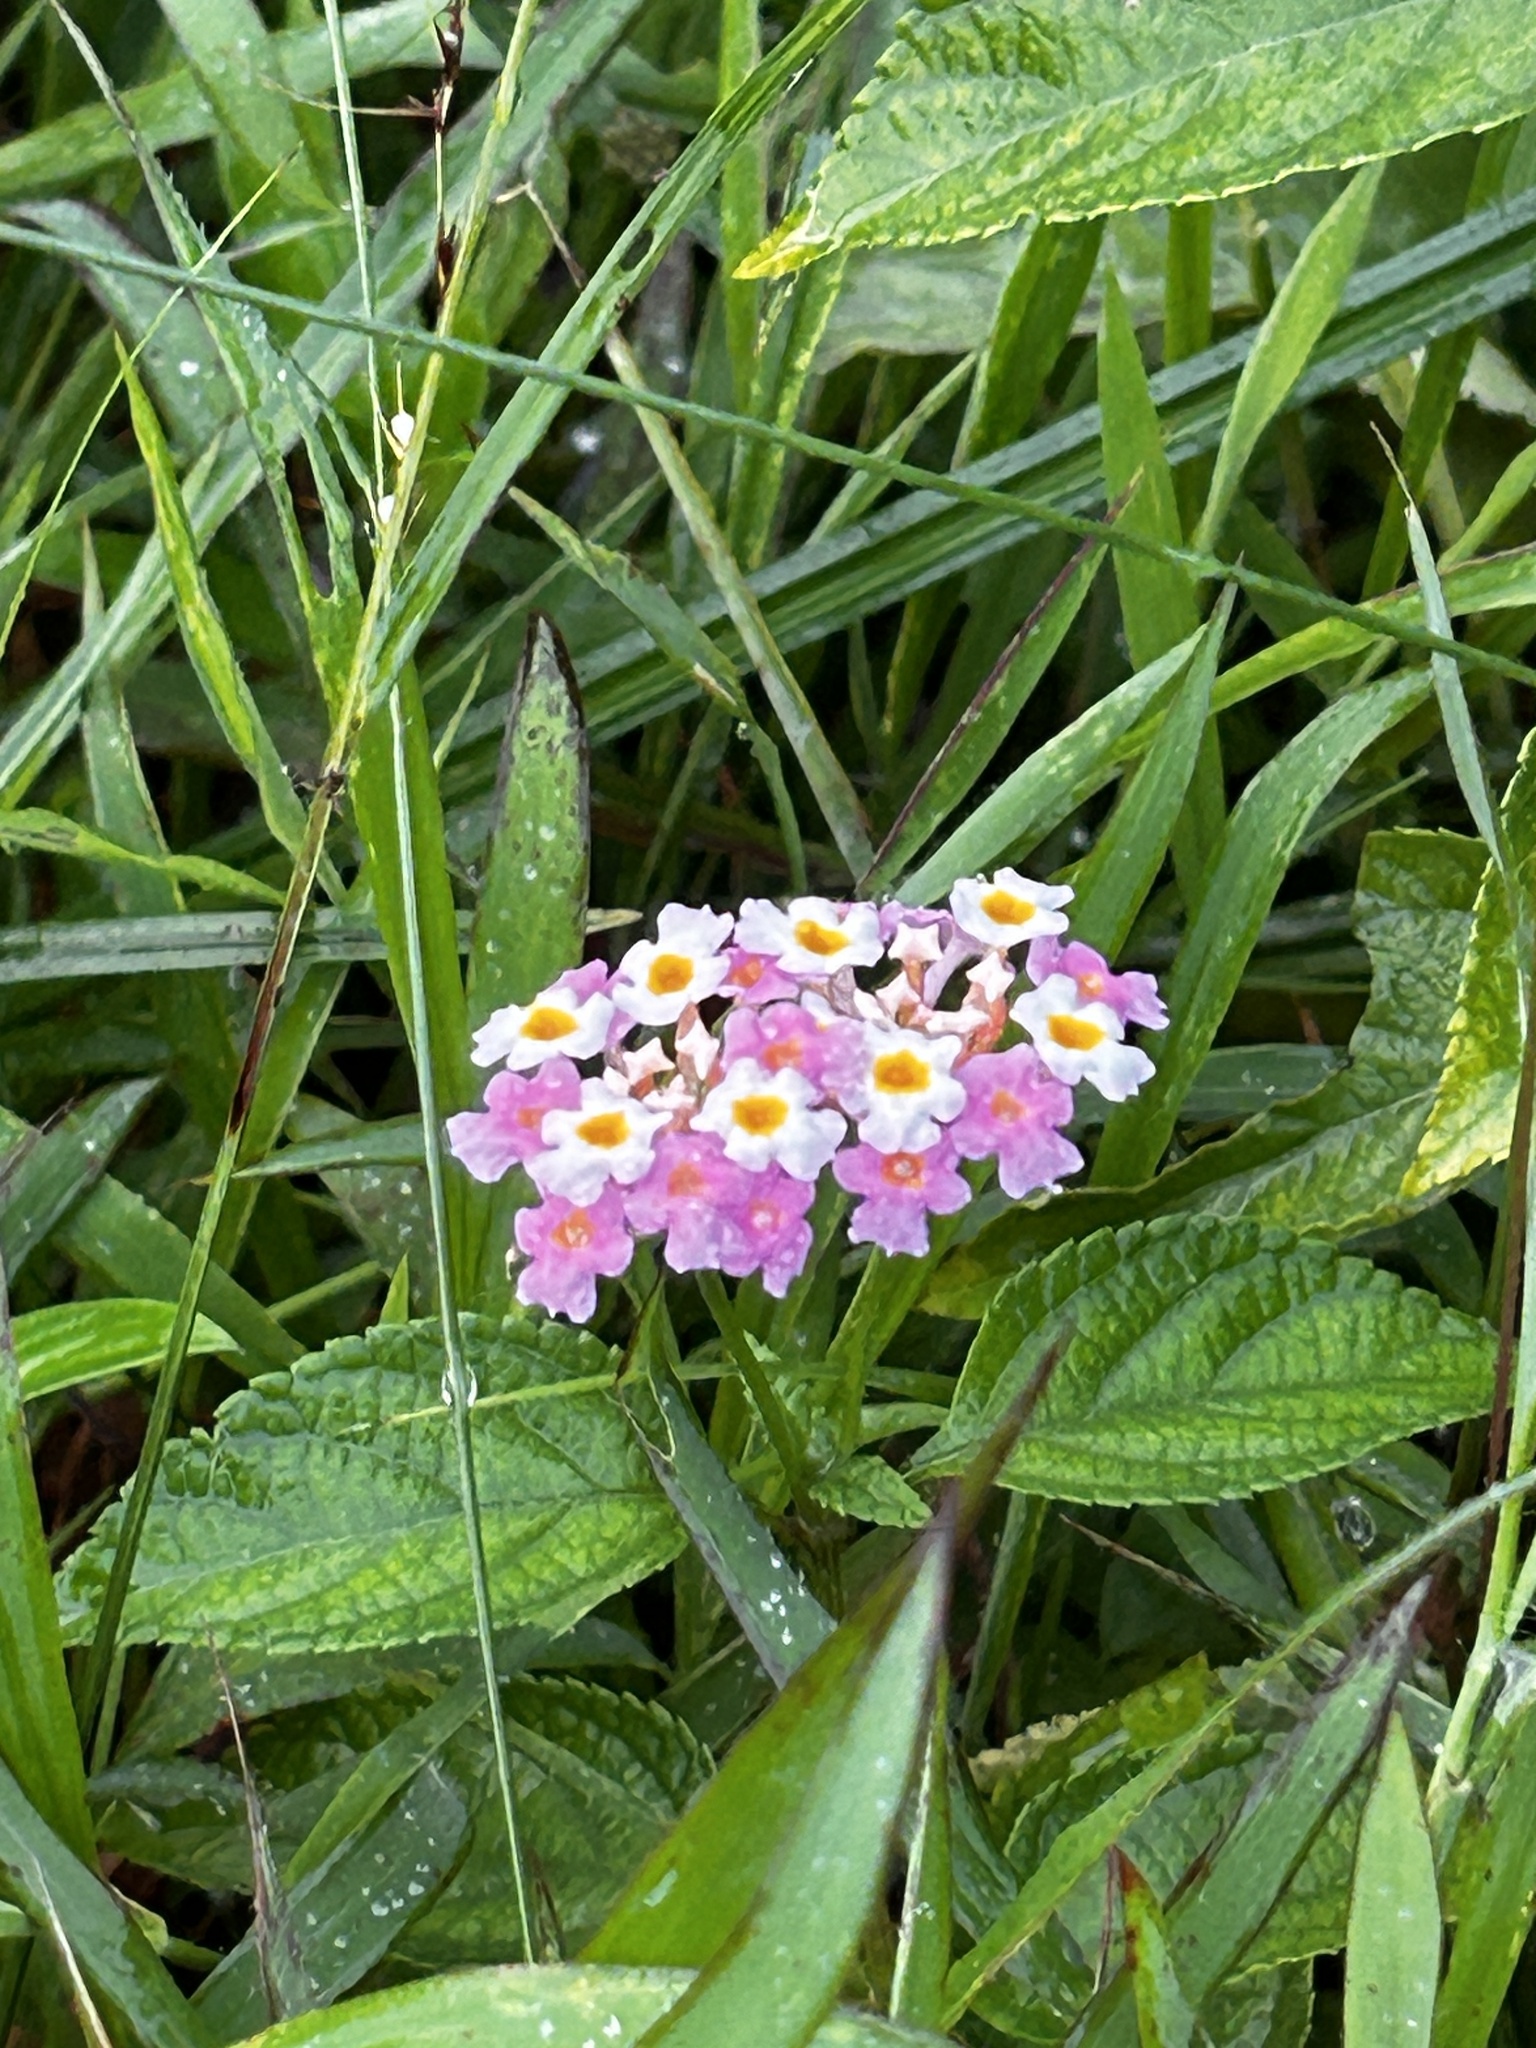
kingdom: Plantae
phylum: Tracheophyta
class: Magnoliopsida
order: Lamiales
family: Verbenaceae
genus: Lantana
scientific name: Lantana camara
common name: Lantana
